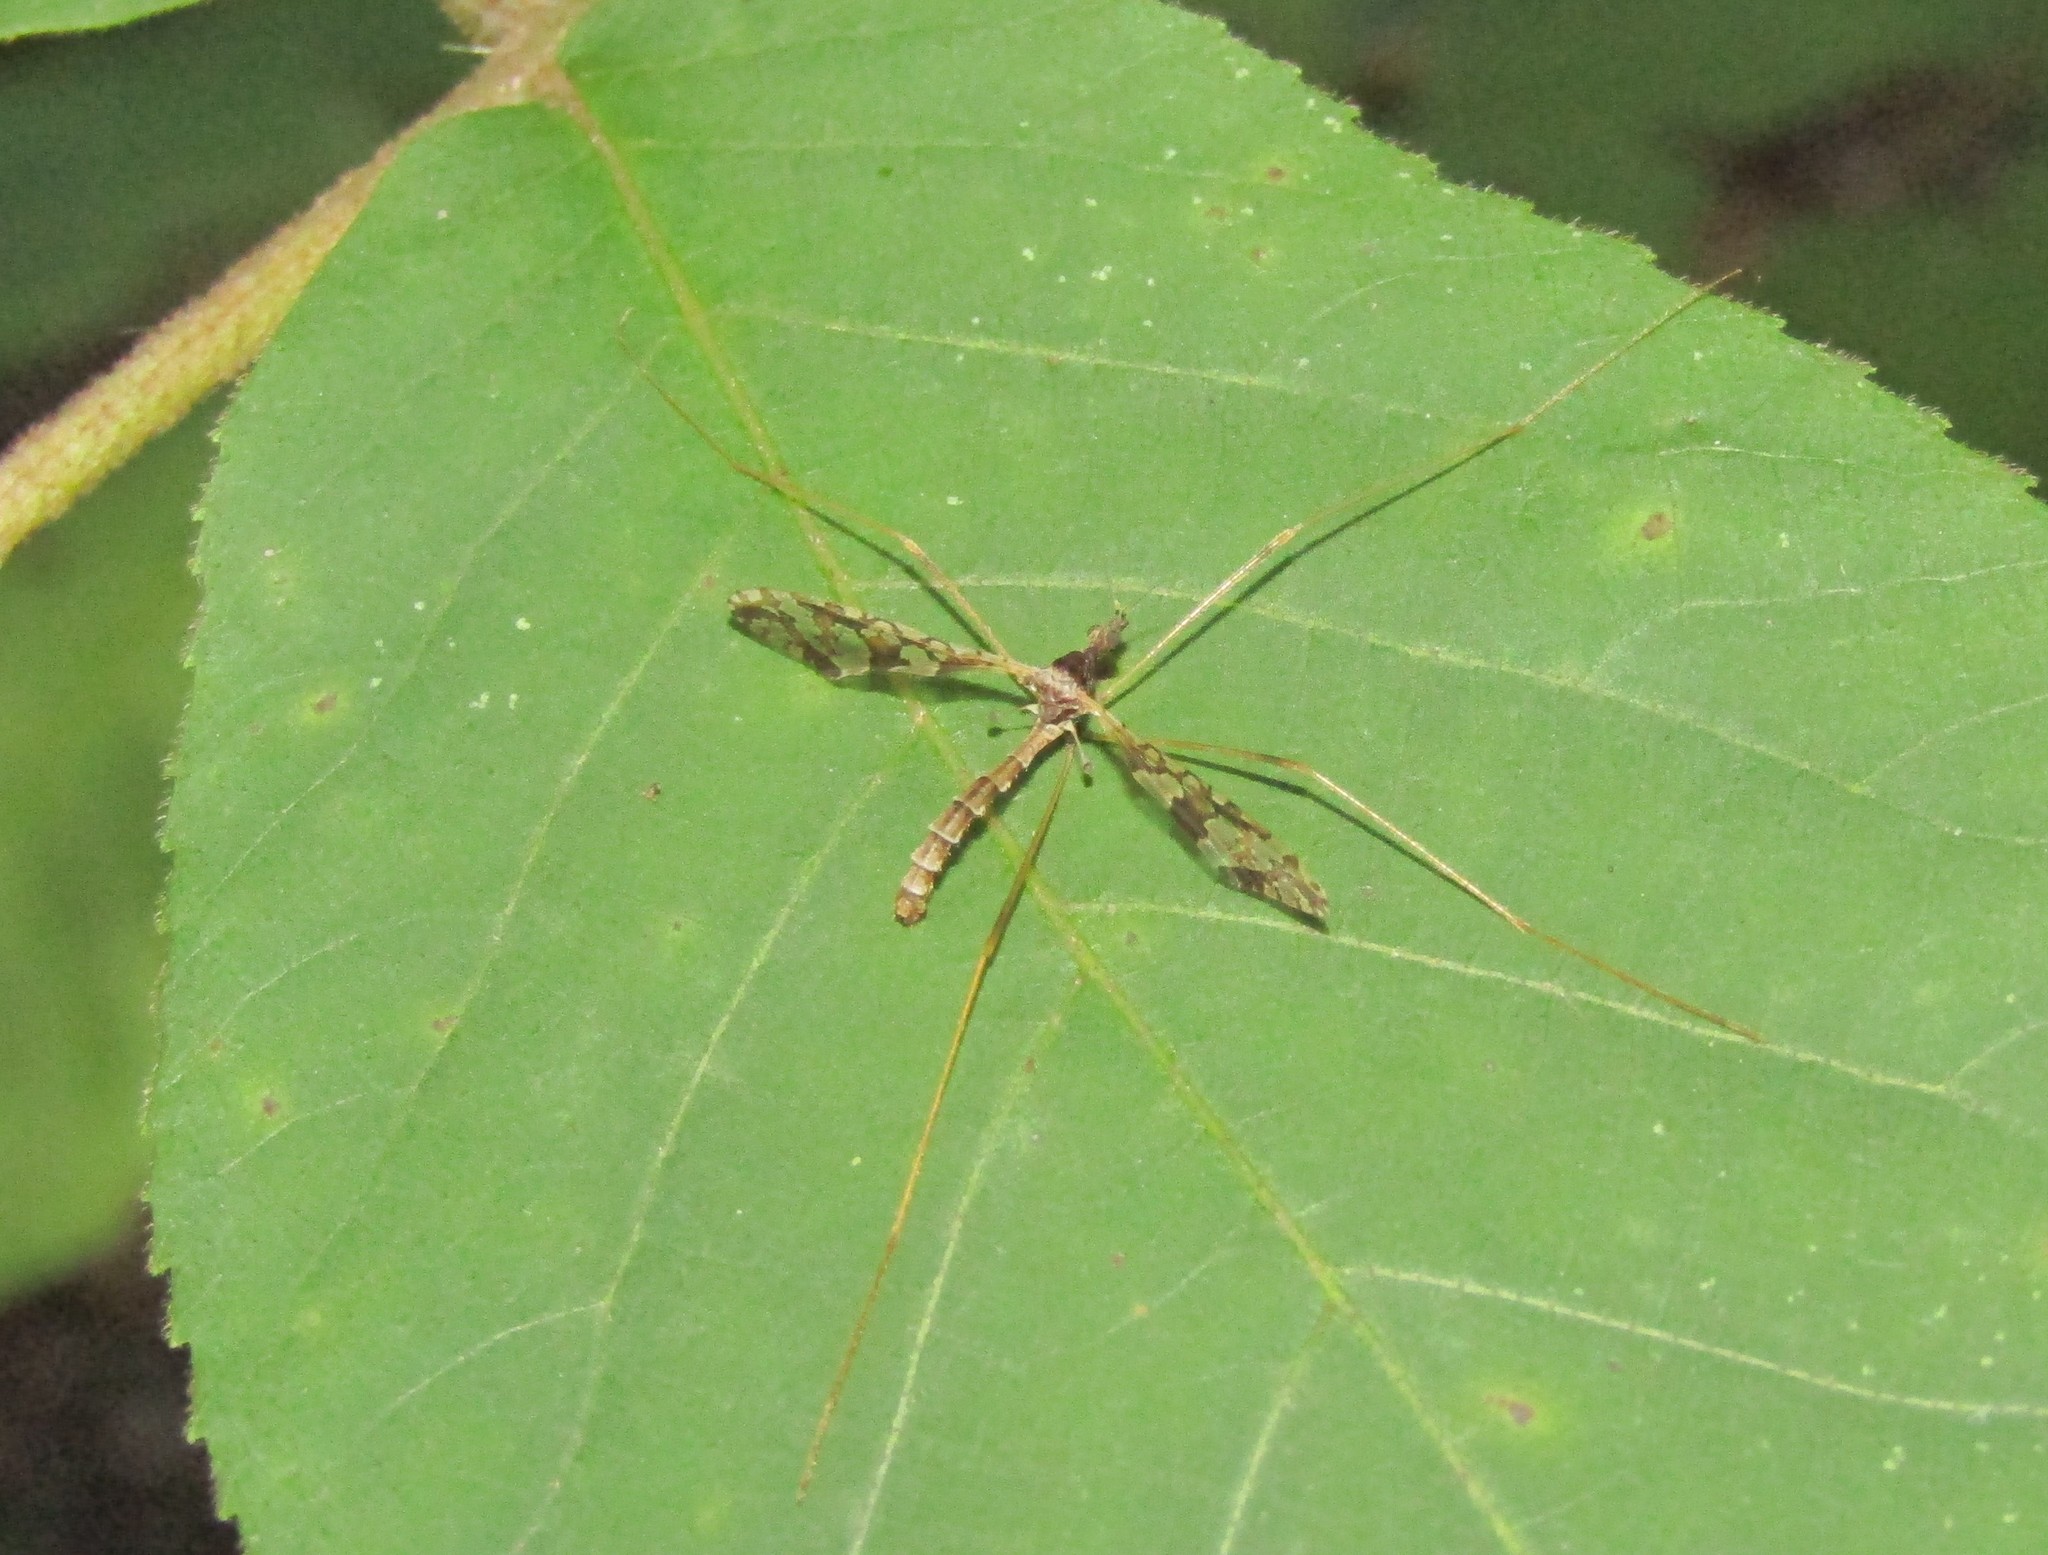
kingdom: Animalia
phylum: Arthropoda
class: Insecta
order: Diptera
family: Limoniidae
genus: Epiphragma
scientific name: Epiphragma solatrix
